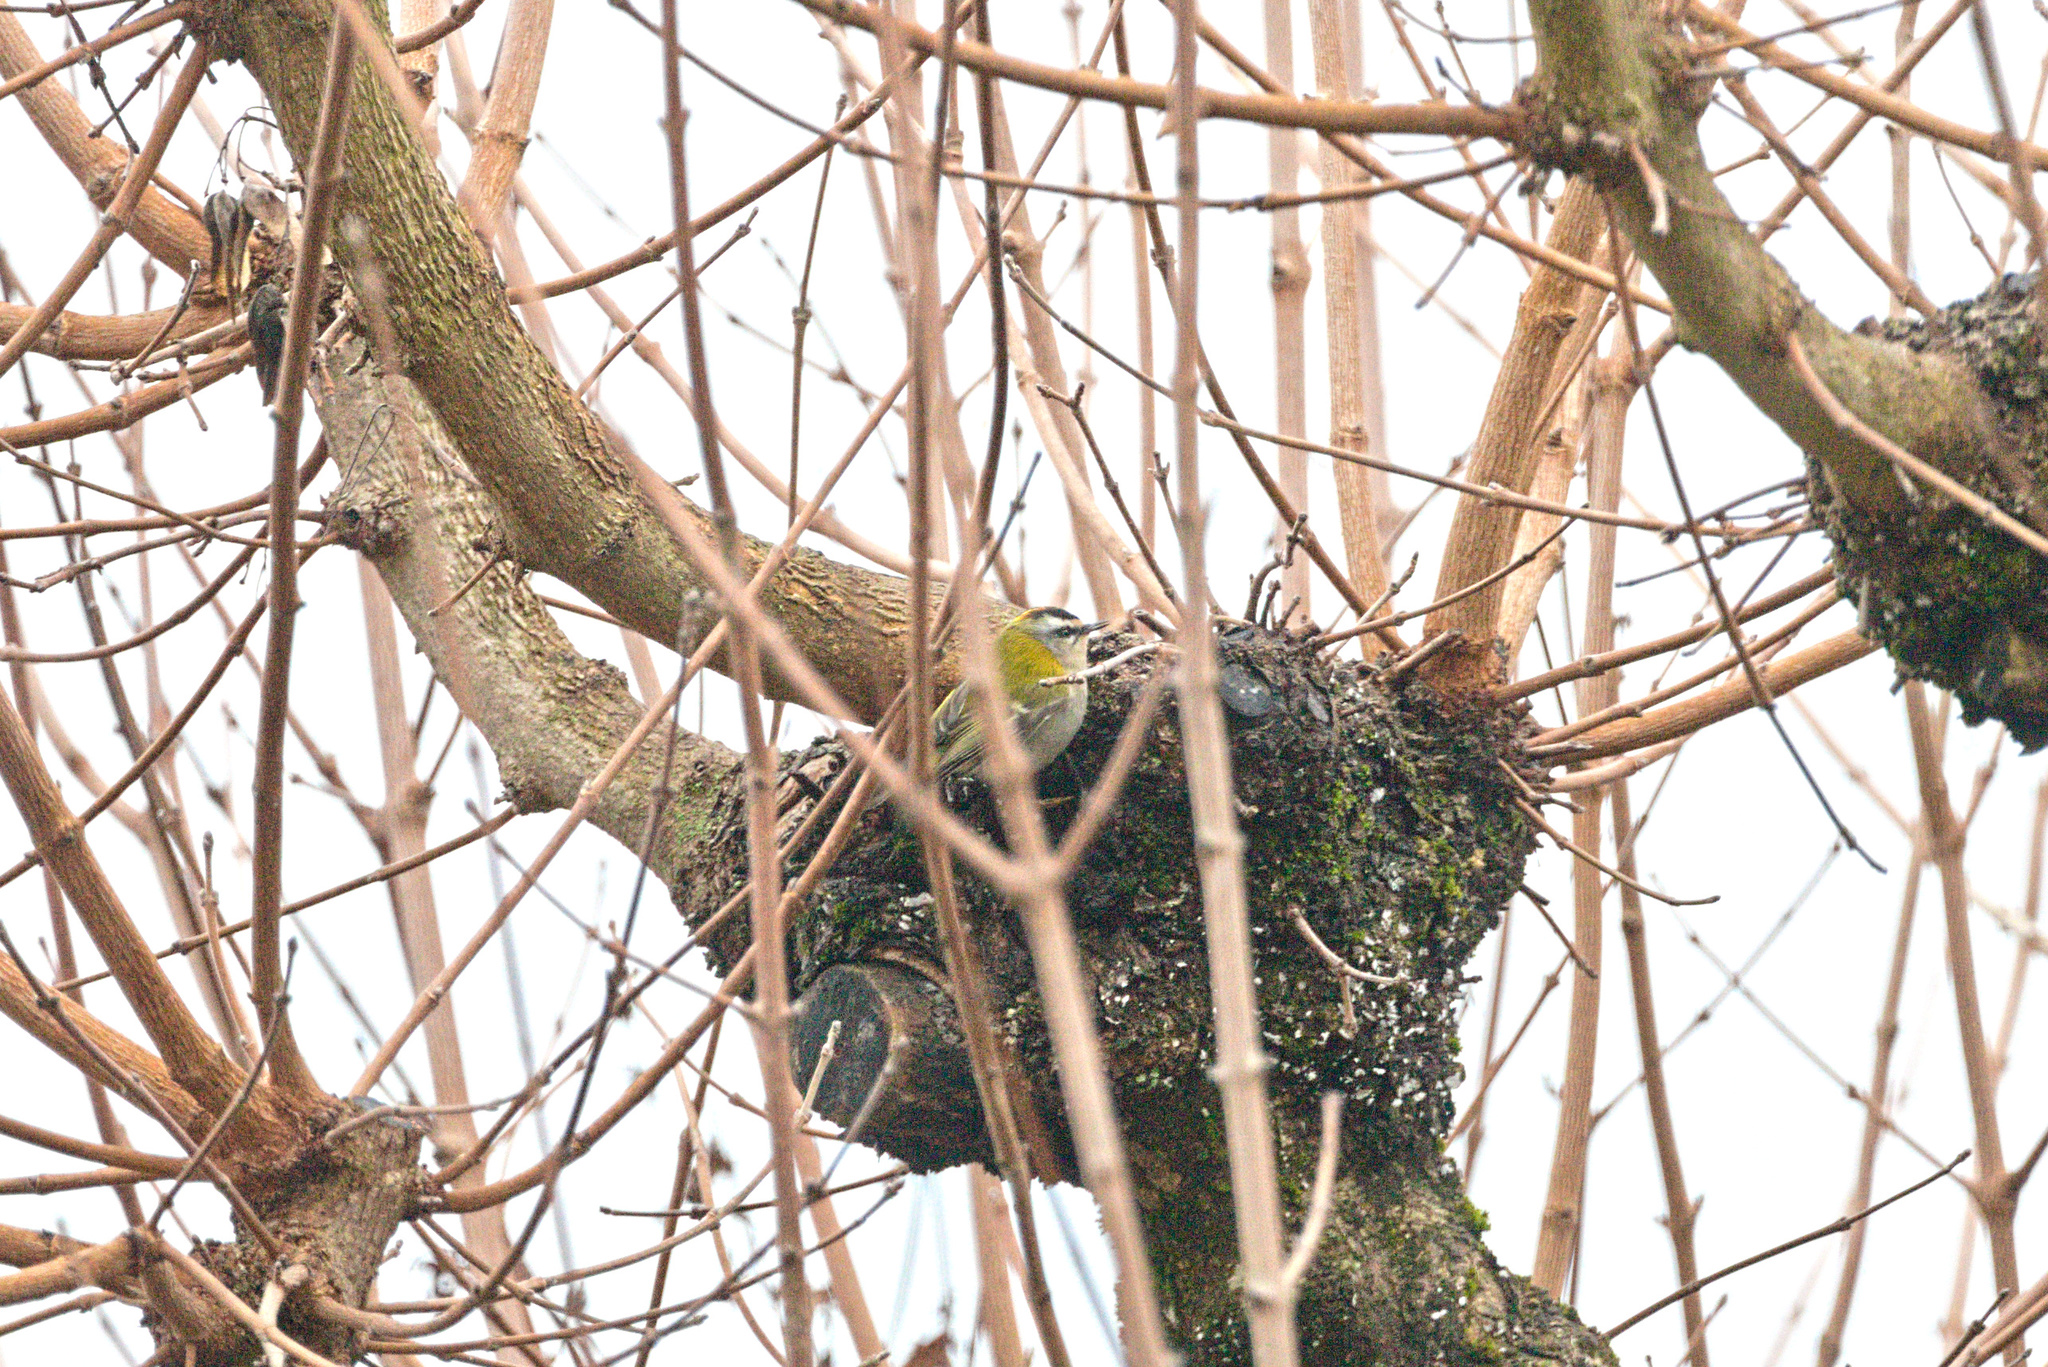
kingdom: Animalia
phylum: Chordata
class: Aves
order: Passeriformes
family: Regulidae
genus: Regulus
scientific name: Regulus ignicapilla
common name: Firecrest
